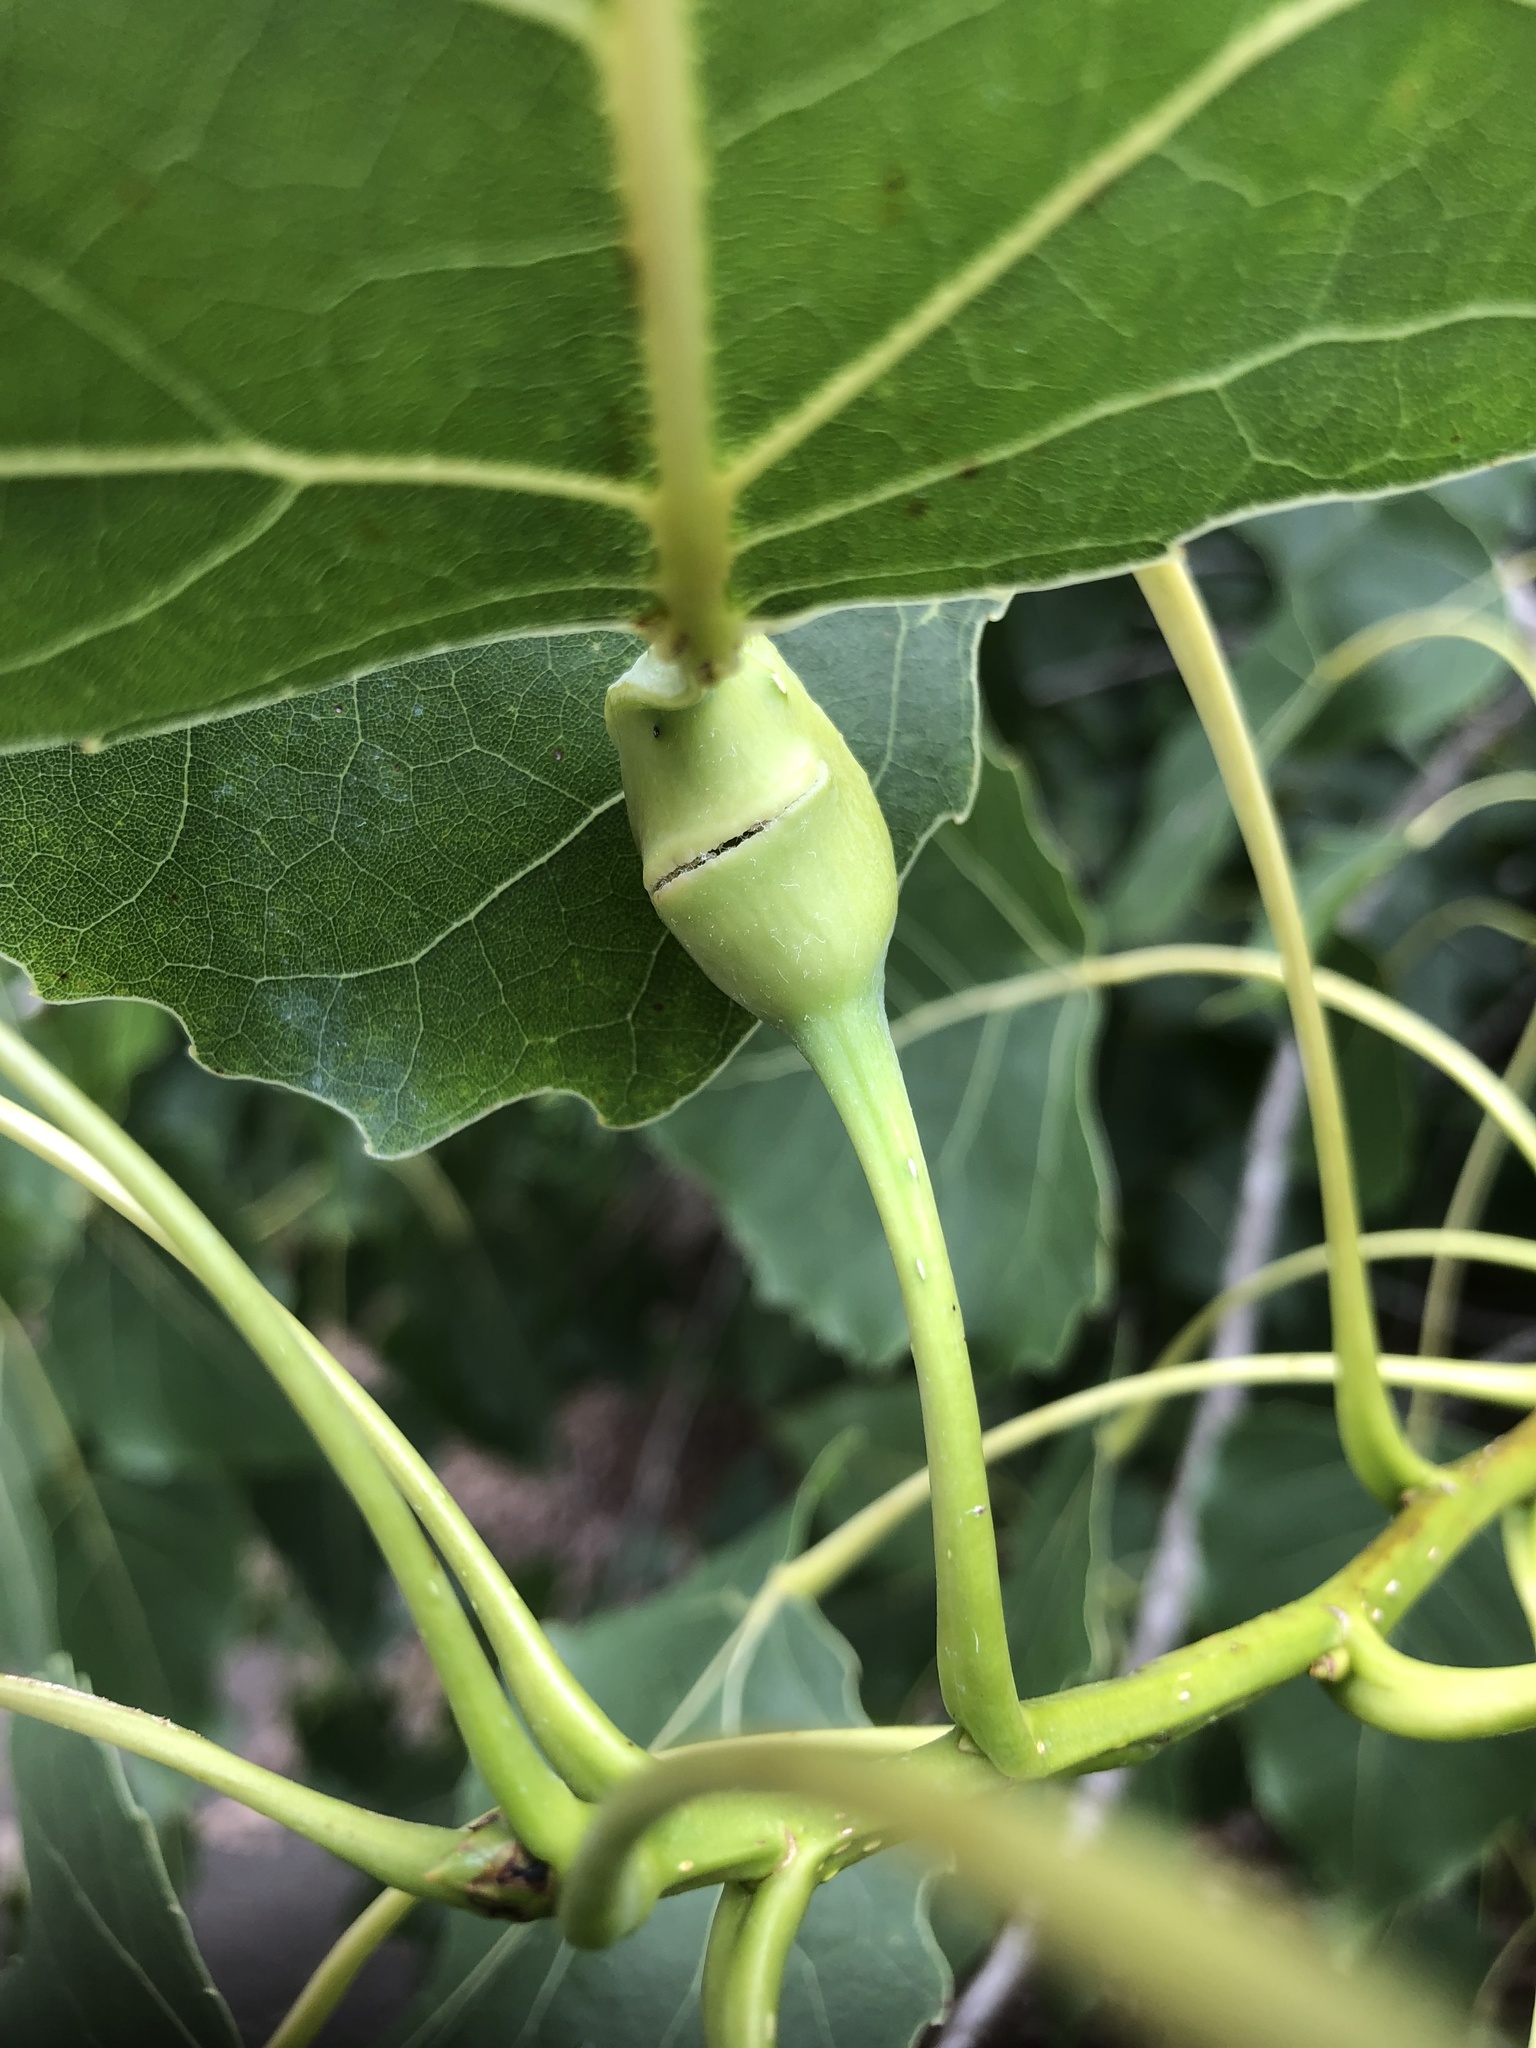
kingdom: Animalia
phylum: Arthropoda
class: Insecta
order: Hemiptera
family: Aphididae
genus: Pemphigus
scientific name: Pemphigus populitransversus
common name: Poplar petiolegall aphid
